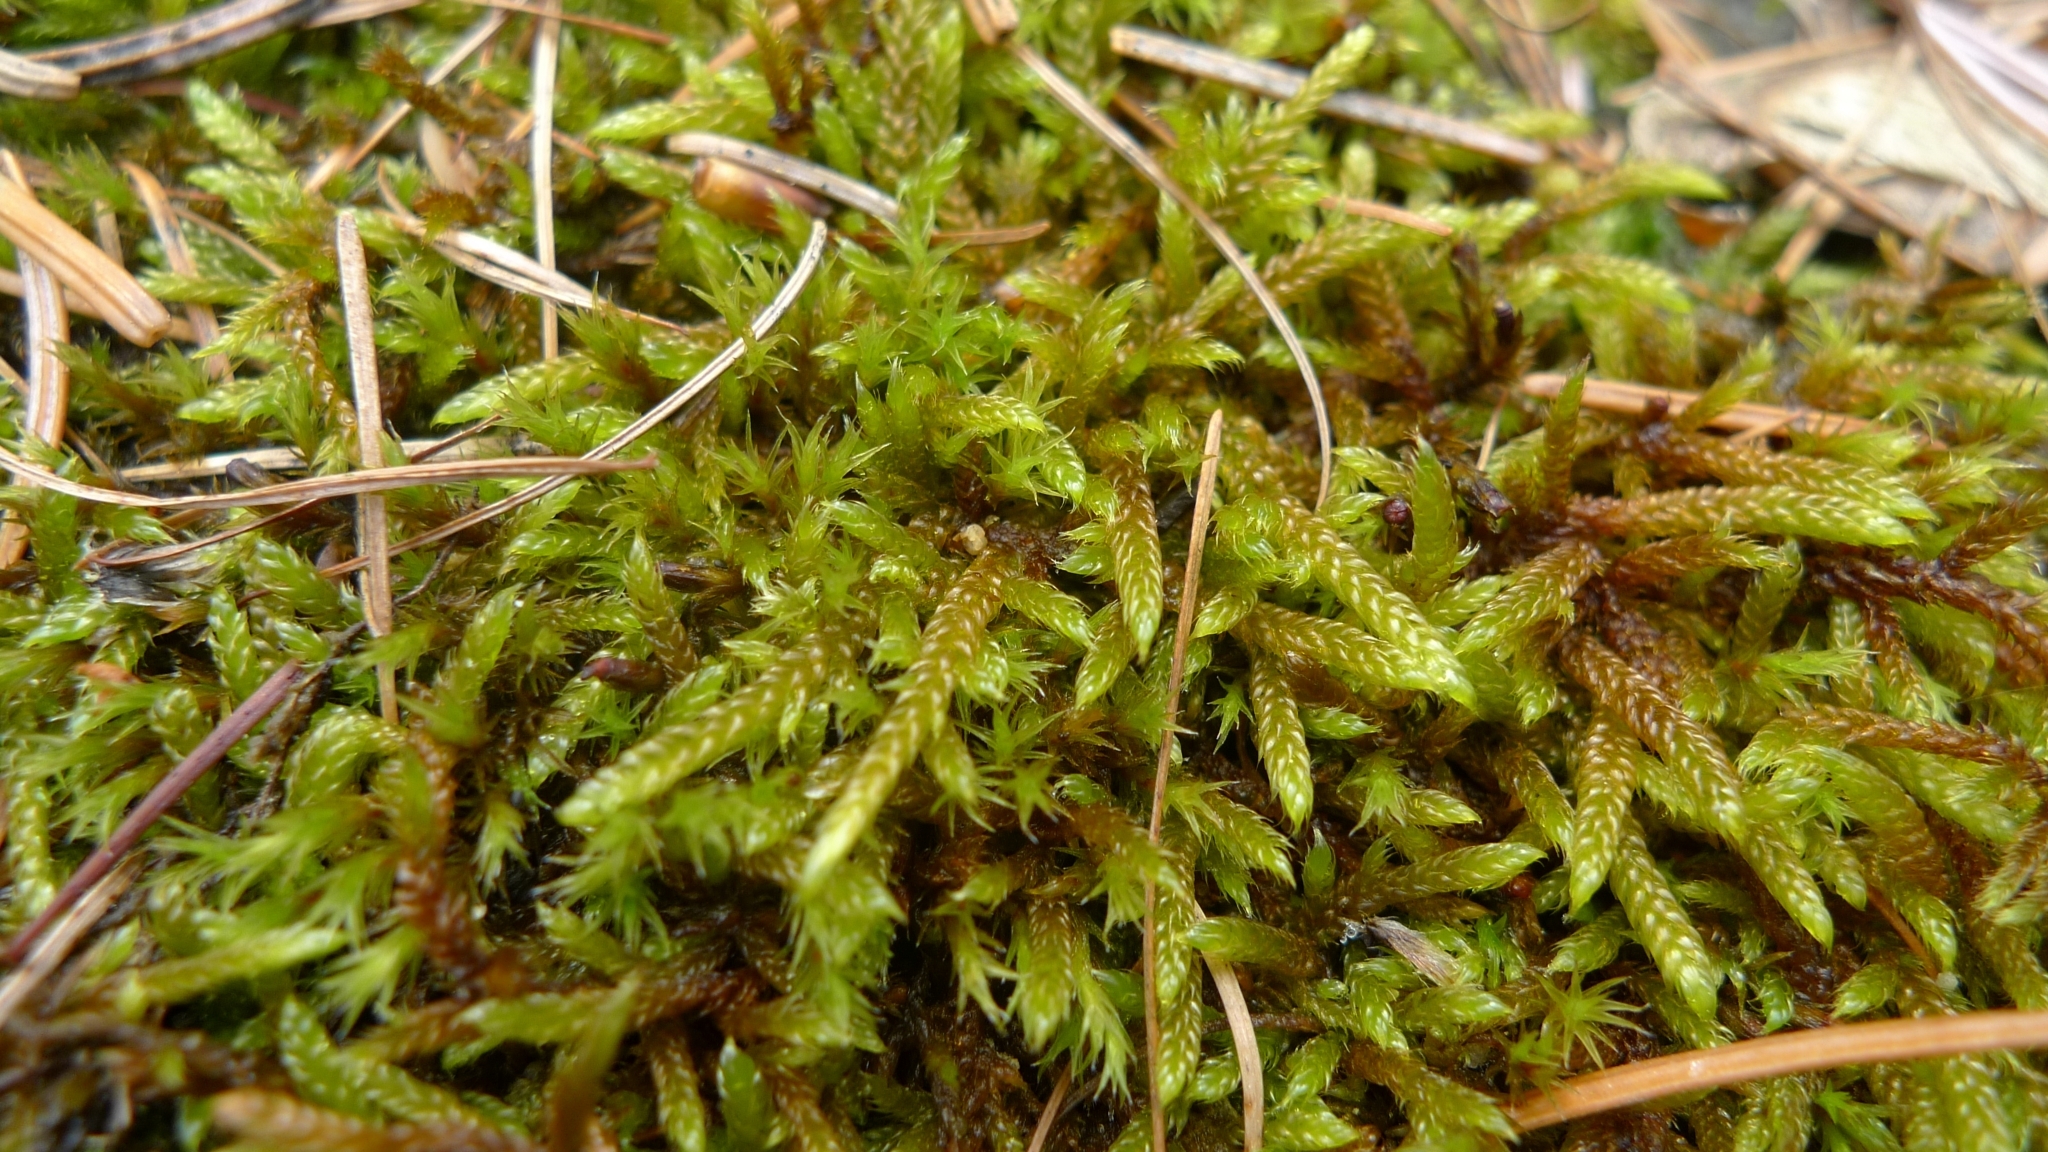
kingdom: Plantae
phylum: Bryophyta
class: Bryopsida
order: Hypnales
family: Hypnaceae
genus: Hypnum
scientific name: Hypnum cupressiforme
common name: Cypress-leaved plait-moss
